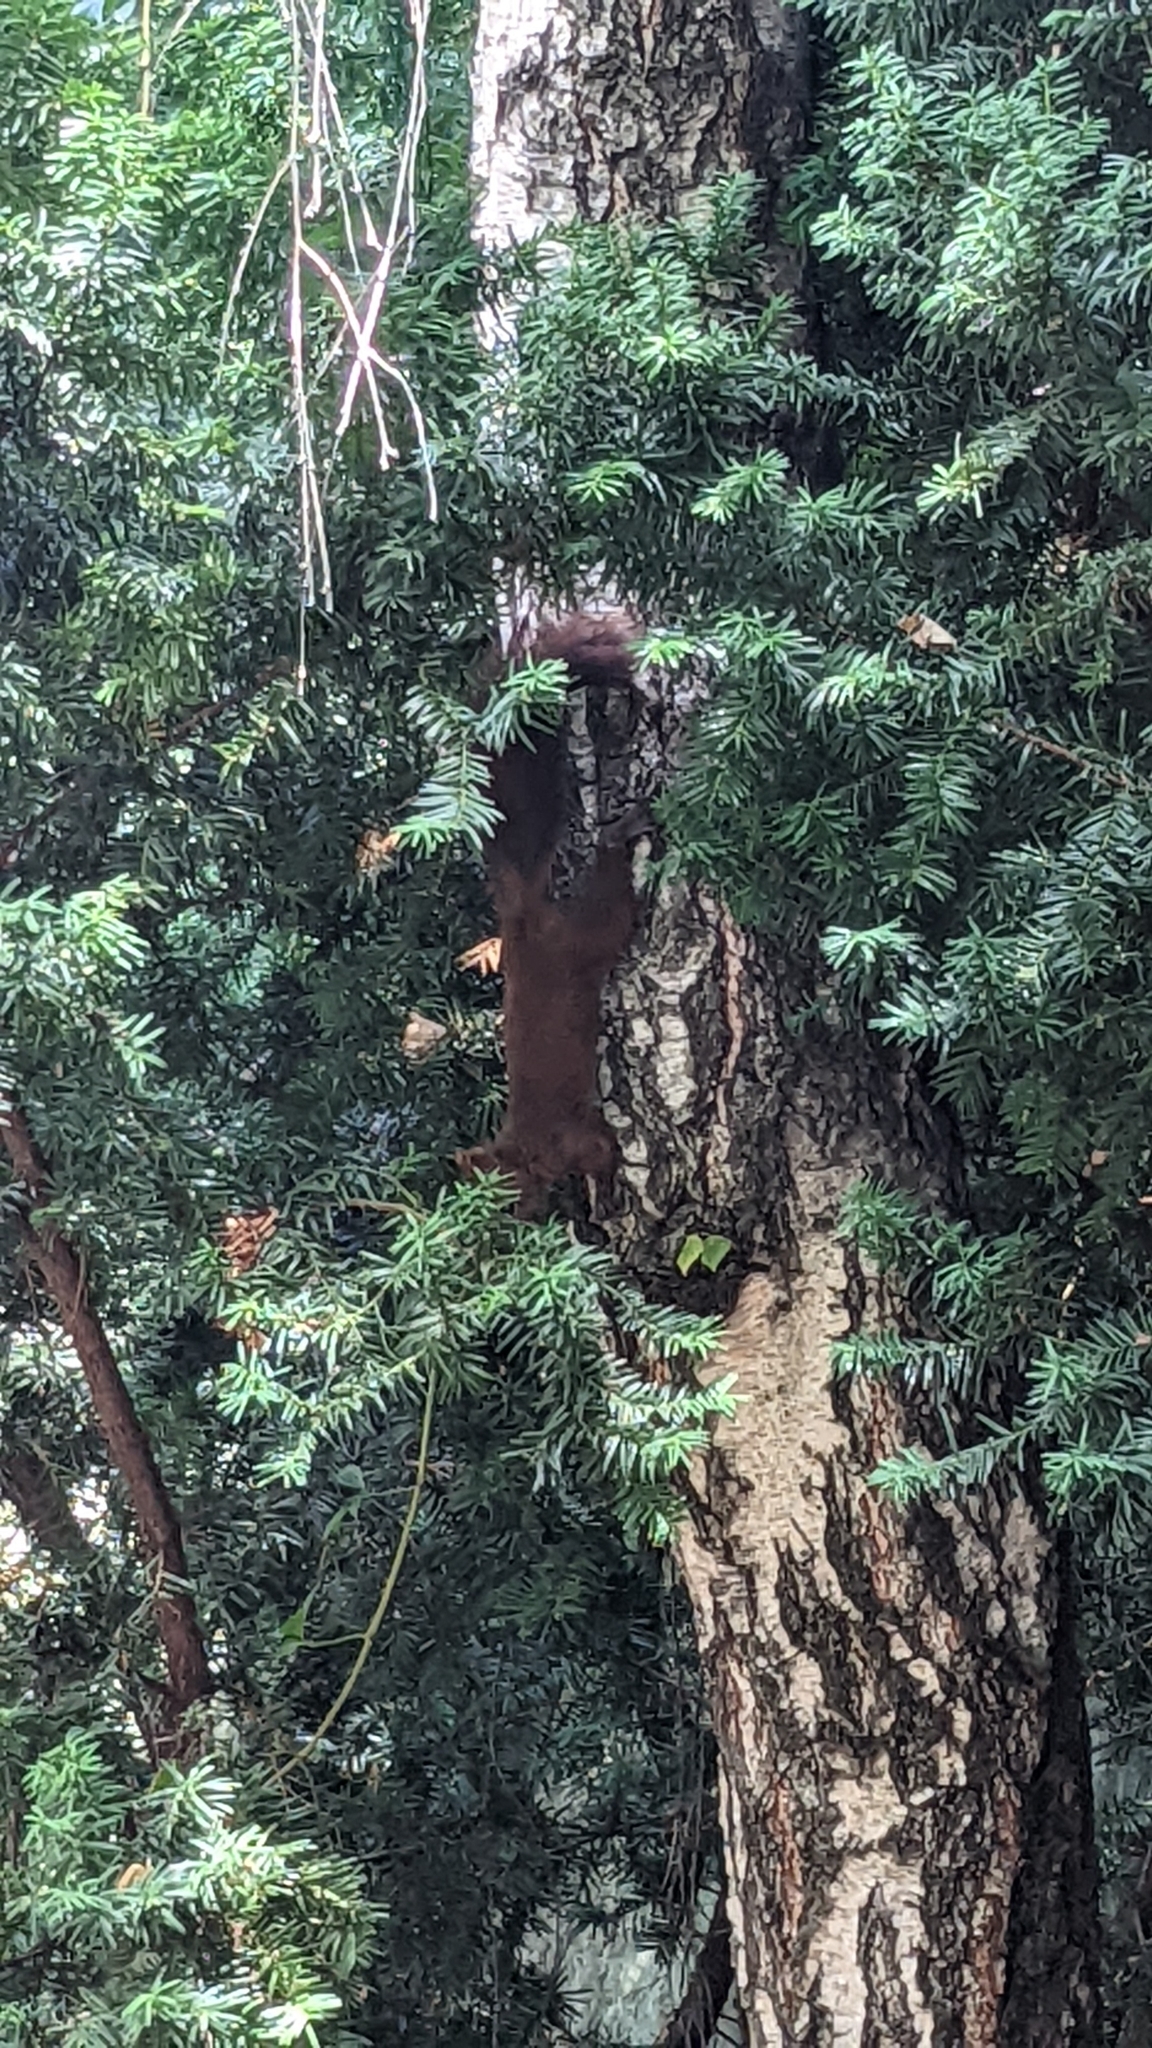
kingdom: Animalia
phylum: Chordata
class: Mammalia
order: Rodentia
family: Sciuridae
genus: Sciurus
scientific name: Sciurus vulgaris
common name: Eurasian red squirrel
